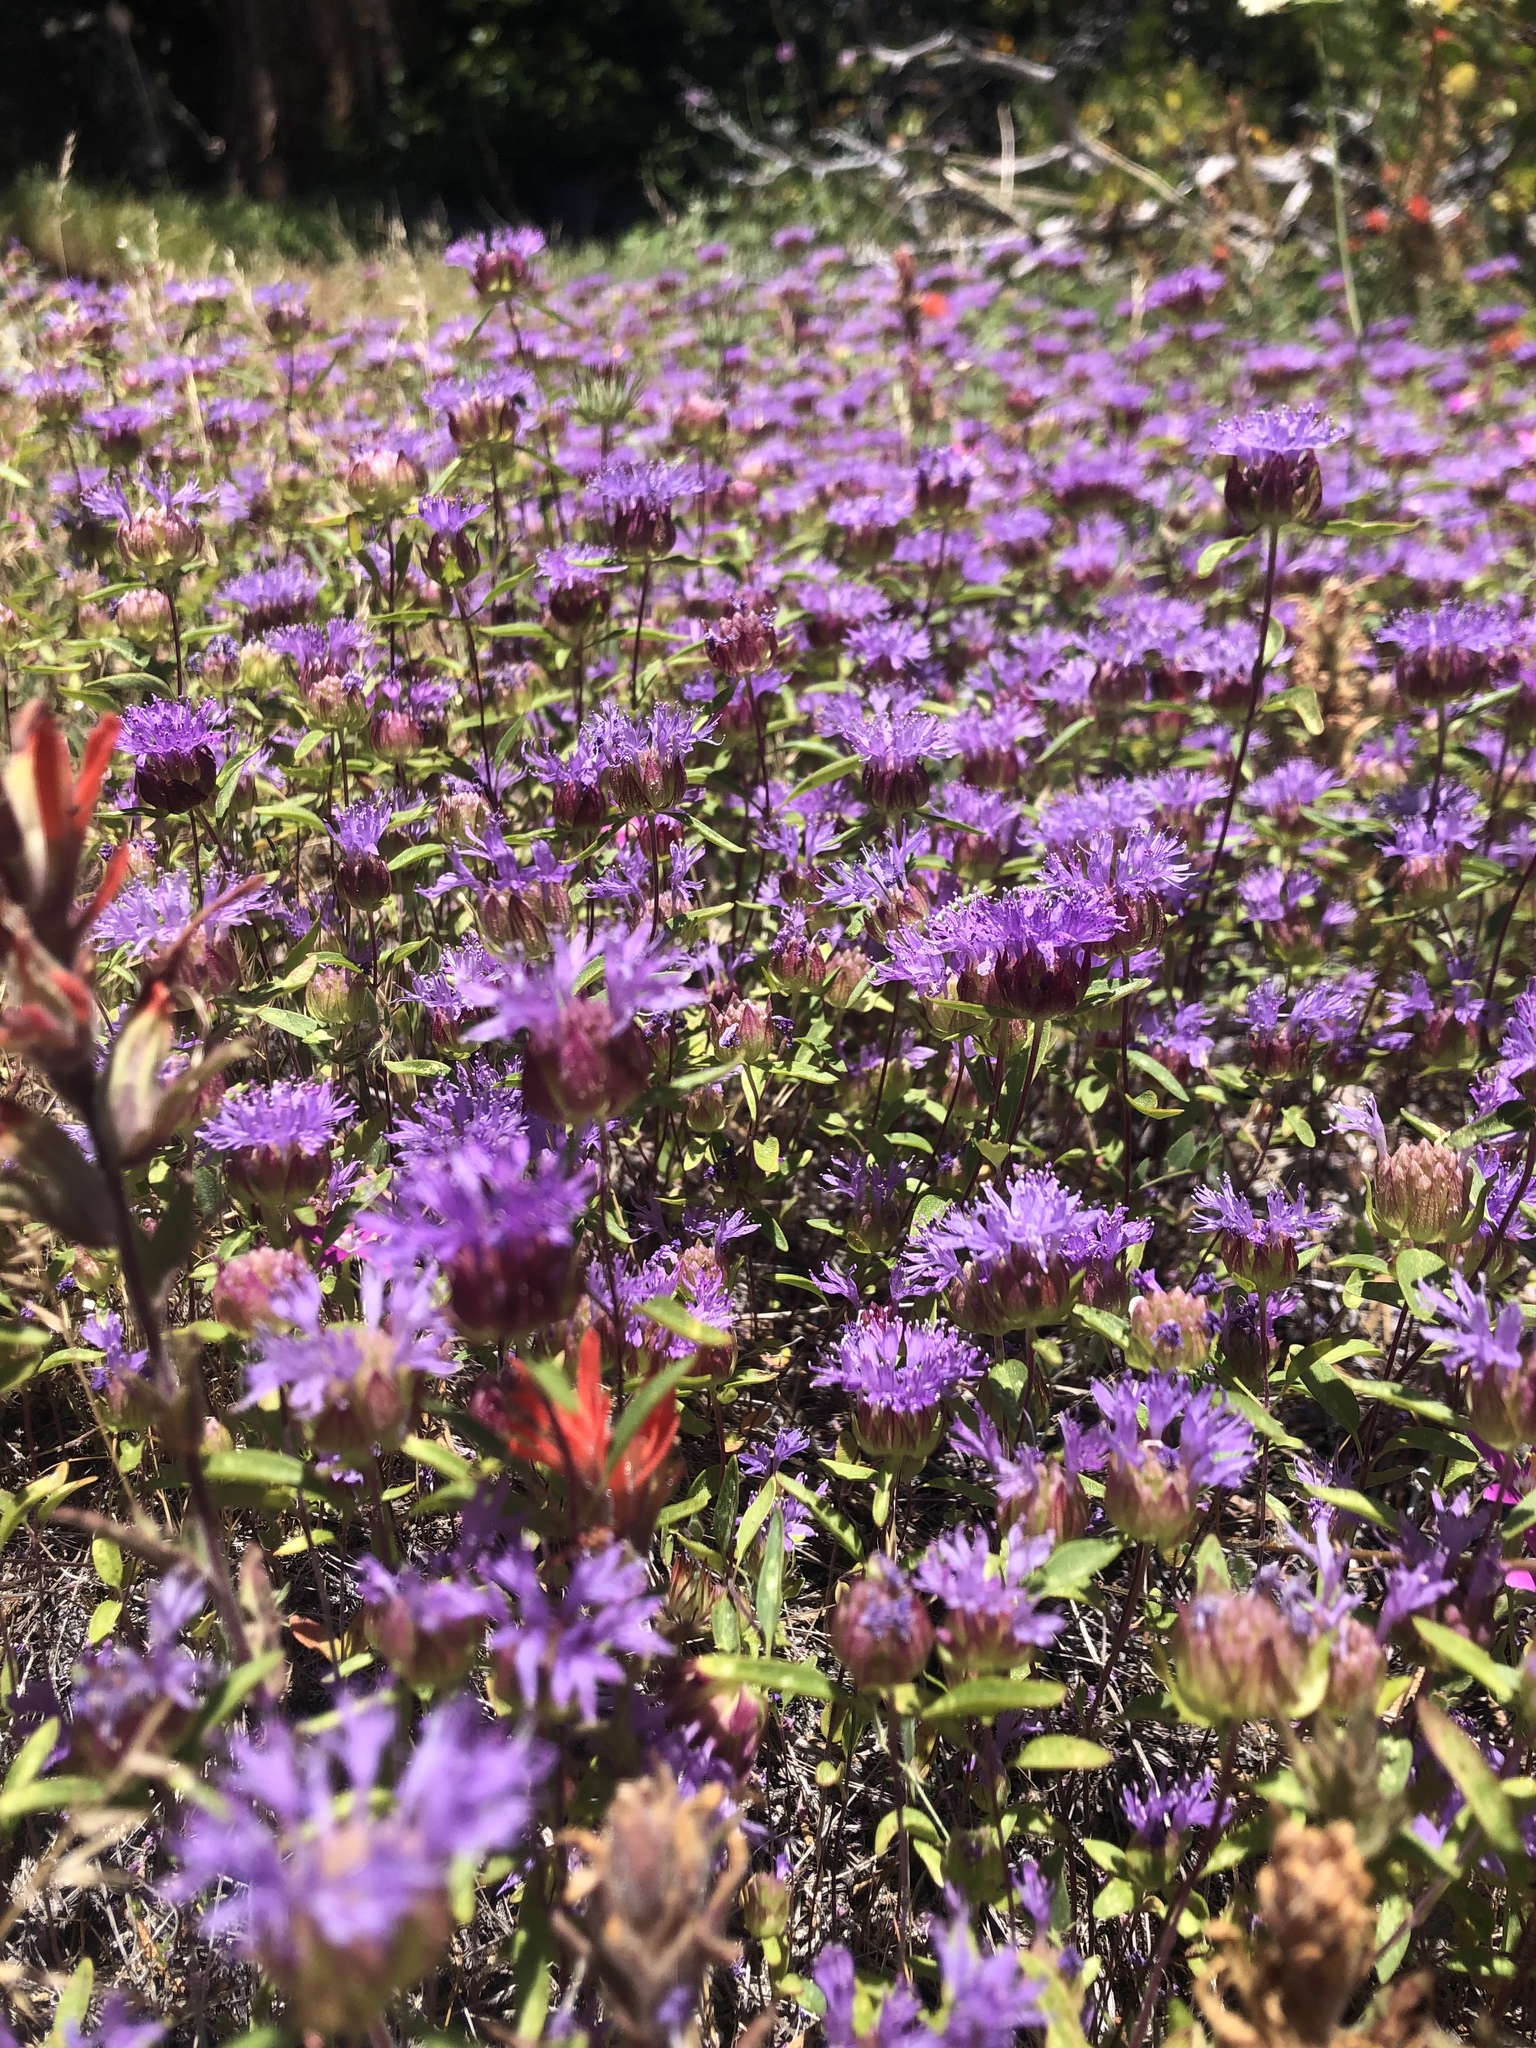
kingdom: Plantae
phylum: Tracheophyta
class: Magnoliopsida
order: Lamiales
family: Lamiaceae
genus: Monardella
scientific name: Monardella odoratissima
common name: Pacific monardella
